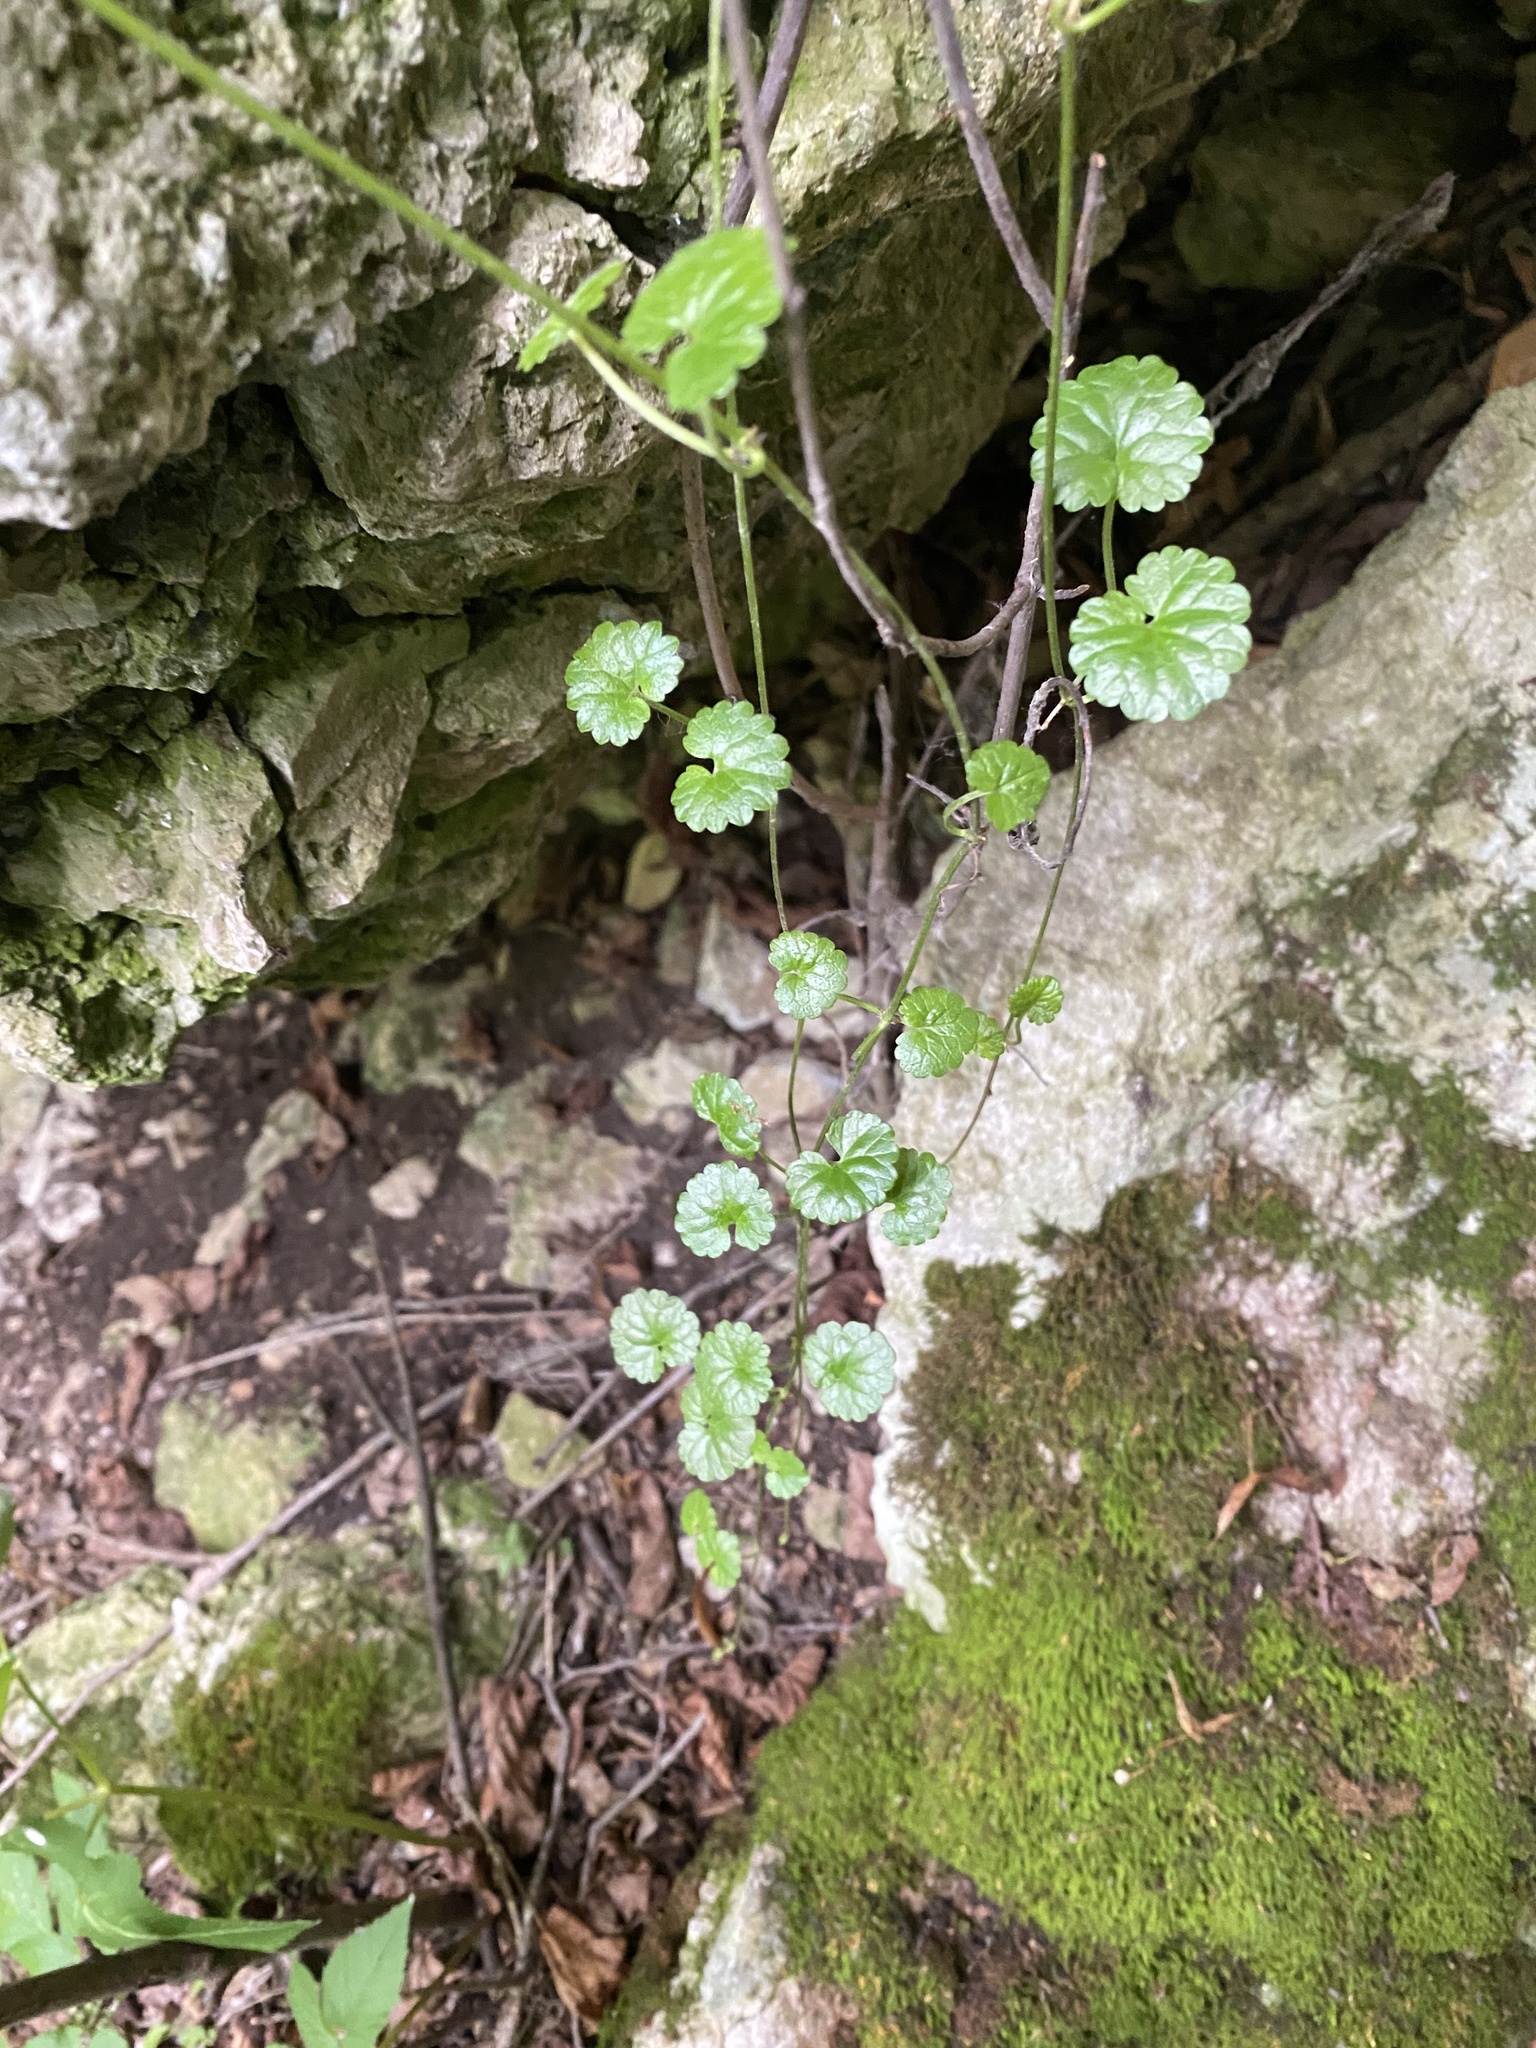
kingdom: Plantae
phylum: Tracheophyta
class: Magnoliopsida
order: Lamiales
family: Lamiaceae
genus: Glechoma
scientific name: Glechoma hederacea
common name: Ground ivy
